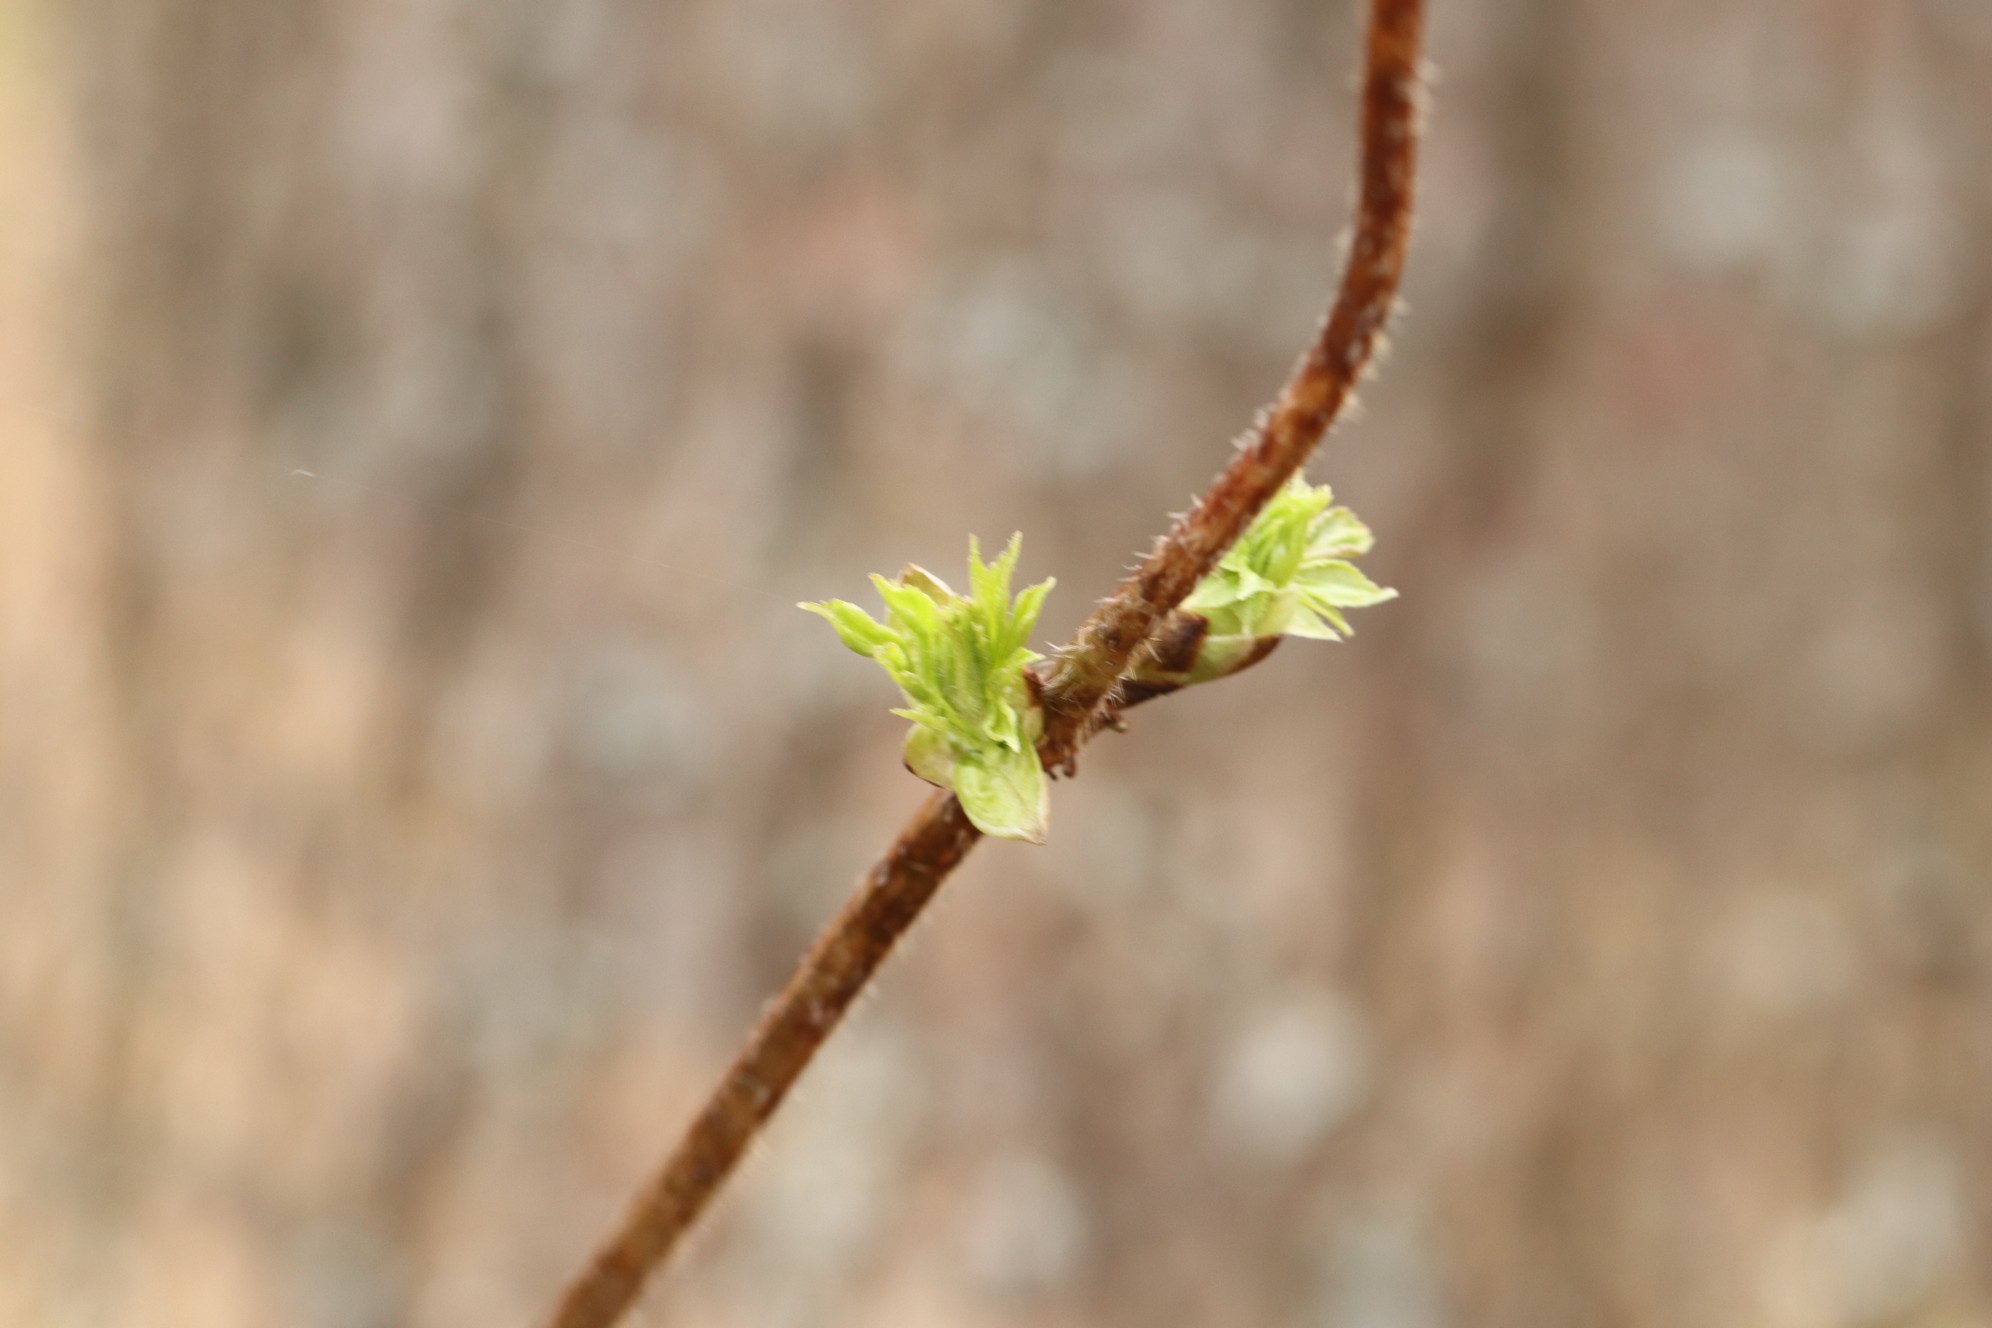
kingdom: Plantae
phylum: Tracheophyta
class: Magnoliopsida
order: Rosales
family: Rosaceae
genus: Rubus
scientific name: Rubus sachalinensis
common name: Red raspberry
